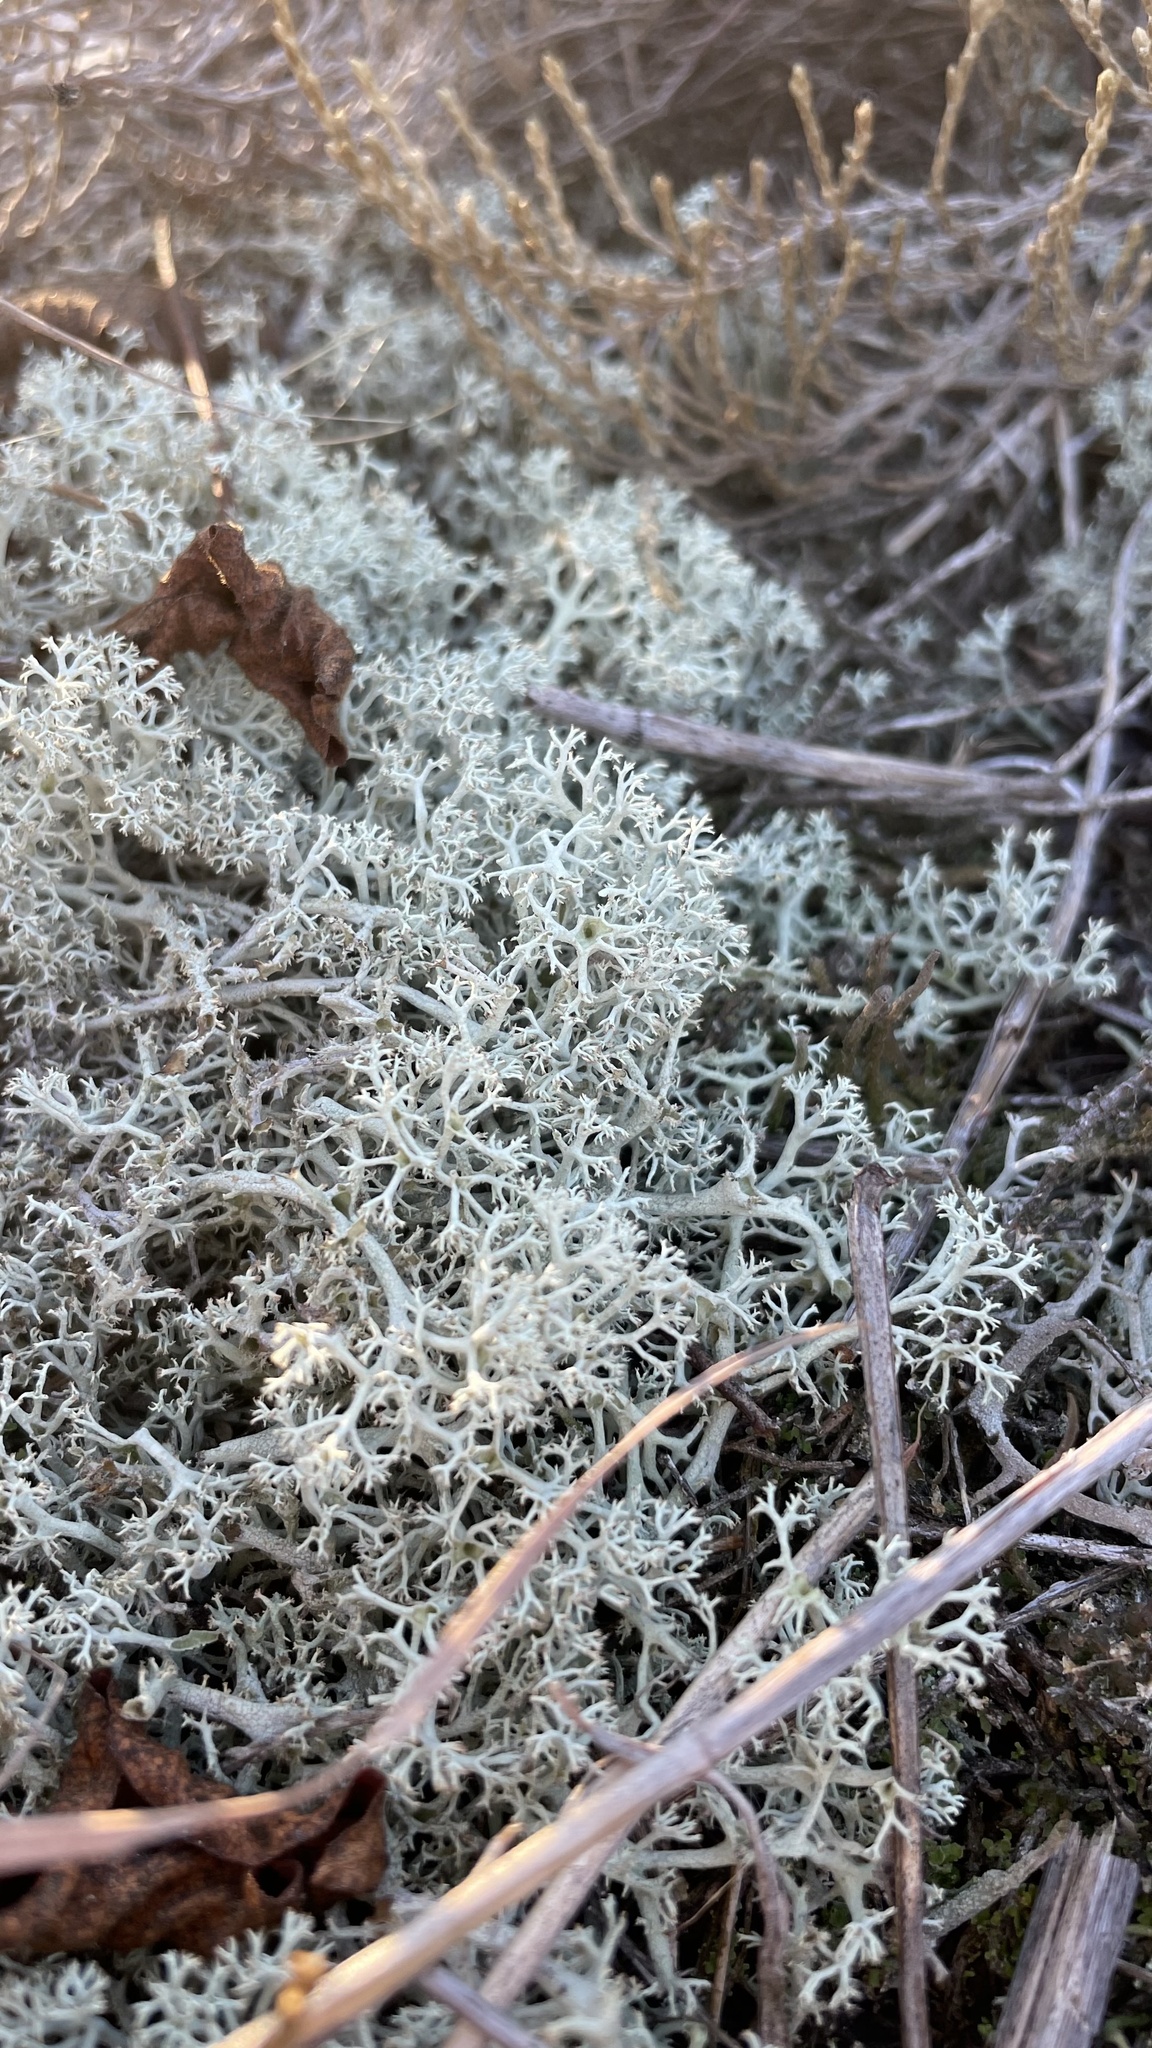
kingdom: Fungi
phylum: Ascomycota
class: Lecanoromycetes
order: Lecanorales
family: Cladoniaceae
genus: Cladonia
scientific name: Cladonia rangiferina
